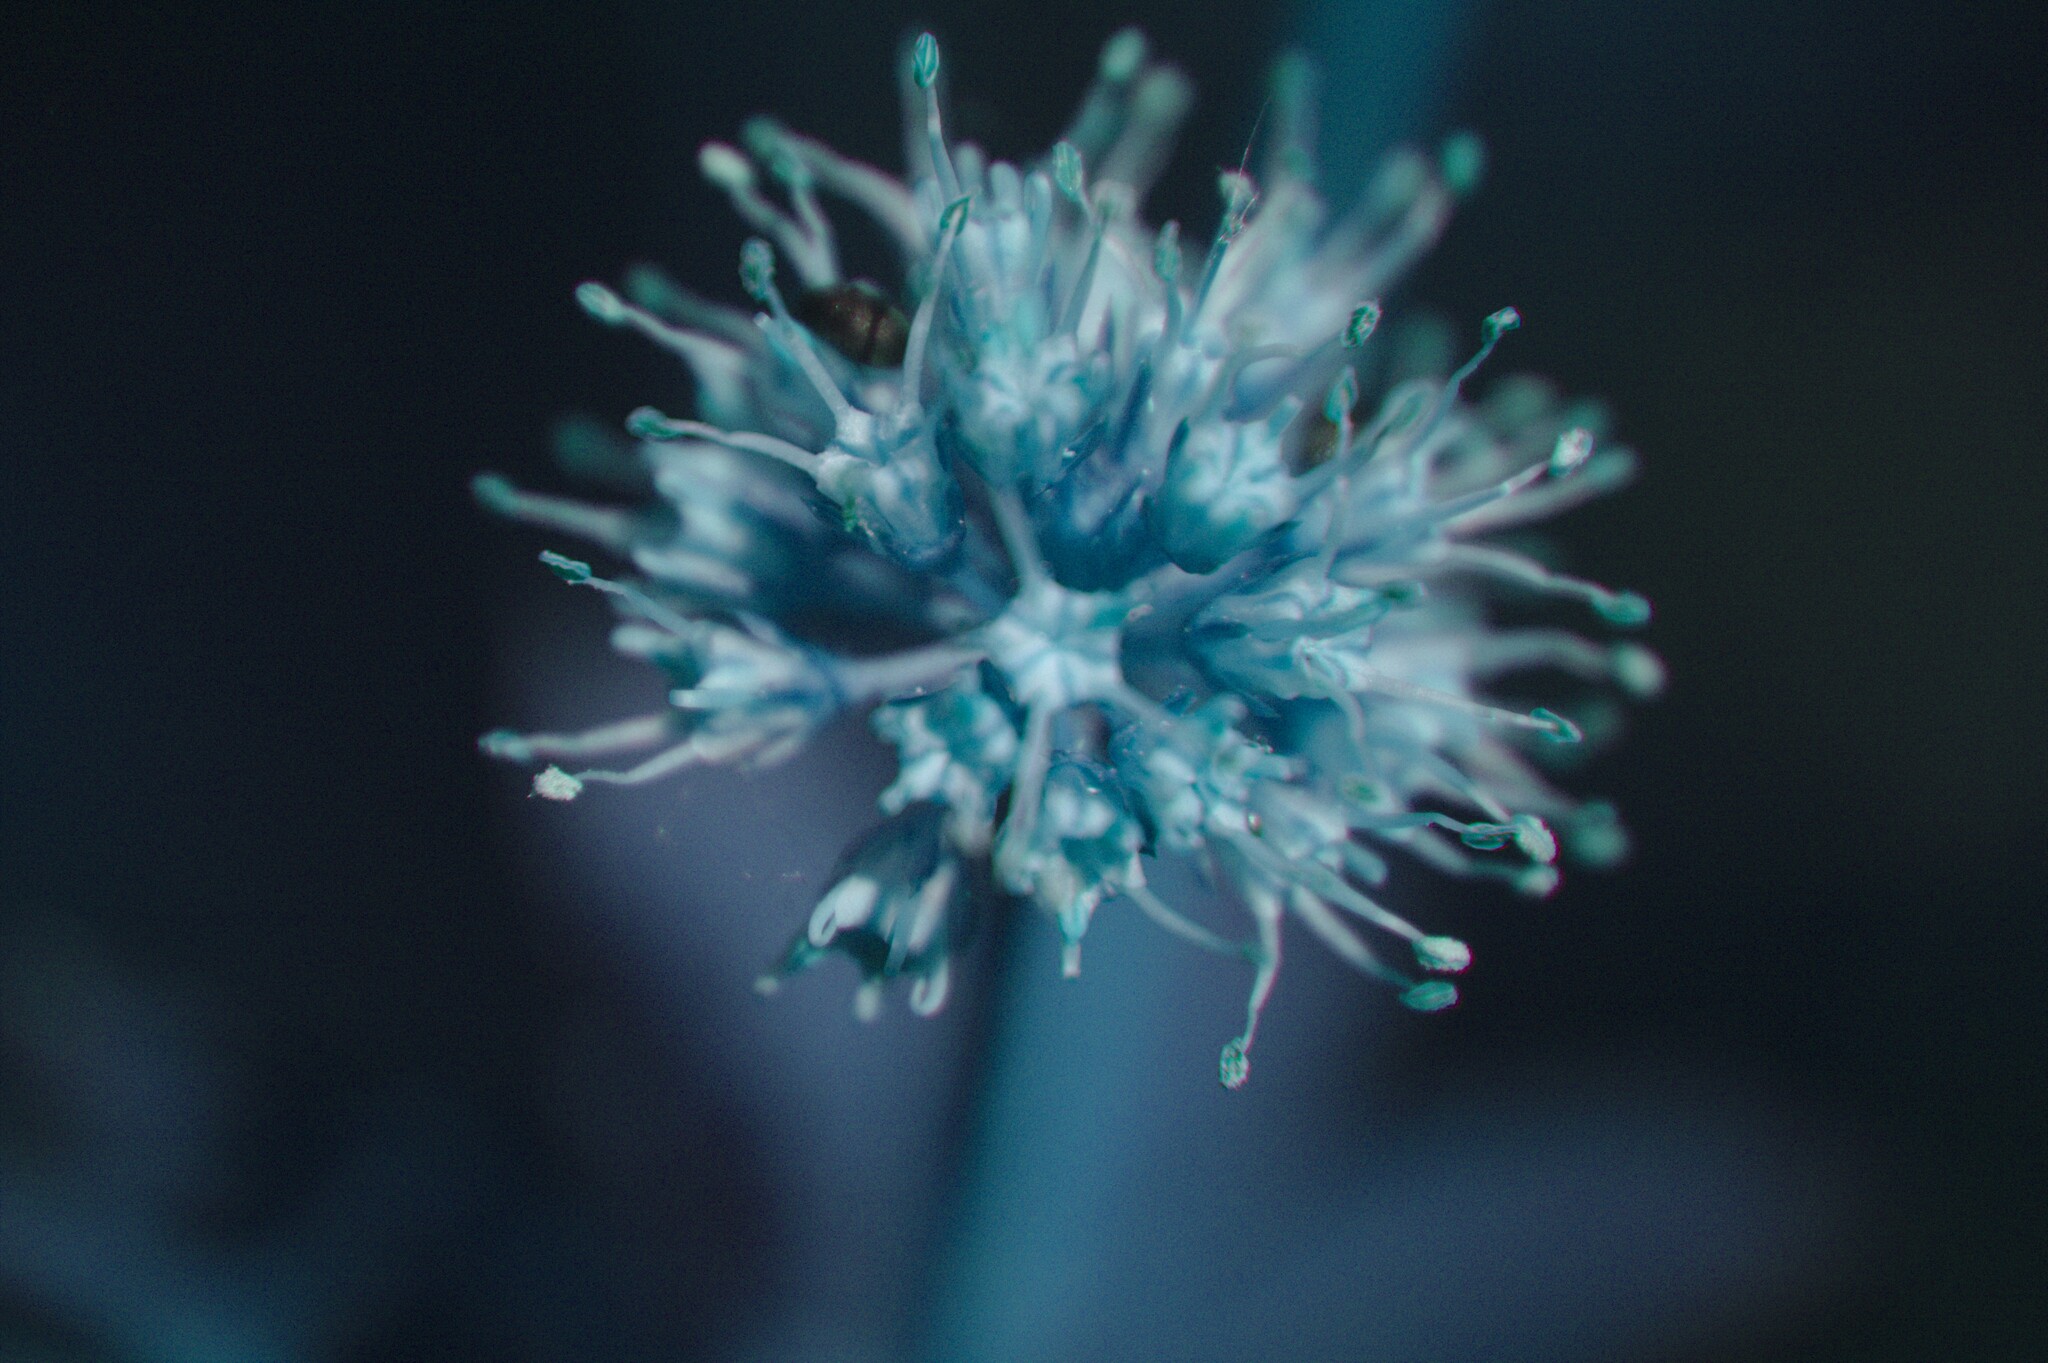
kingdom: Plantae
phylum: Tracheophyta
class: Magnoliopsida
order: Apiales
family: Apiaceae
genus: Sanicula
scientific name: Sanicula marilandica
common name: Black snakeroot
